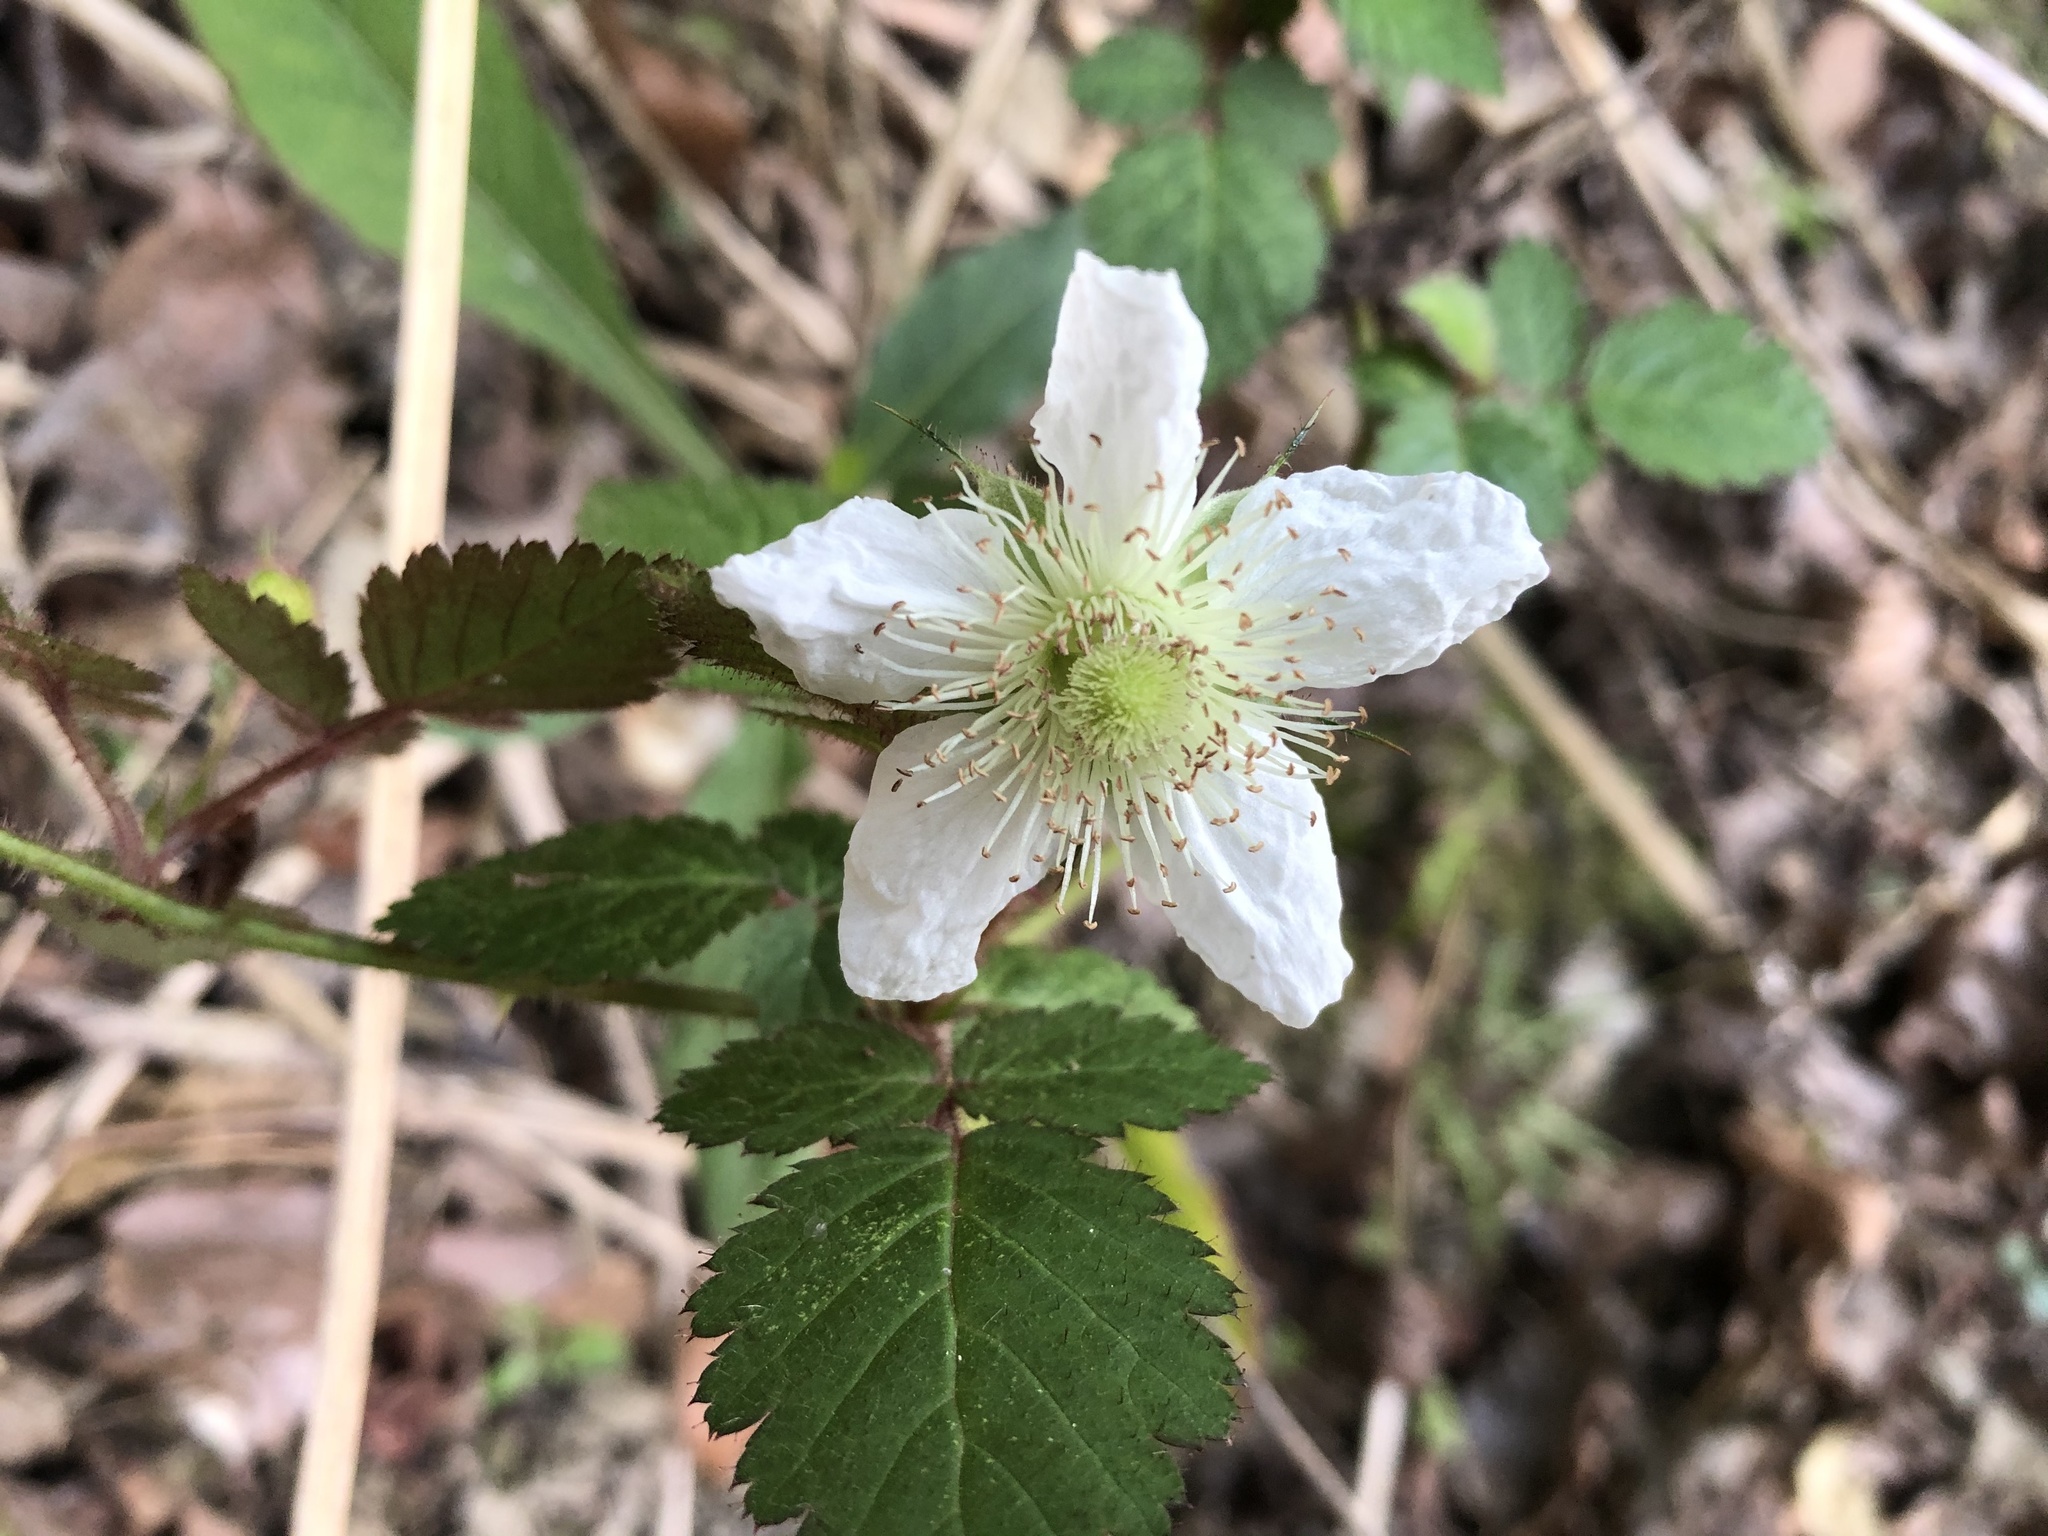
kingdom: Plantae
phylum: Tracheophyta
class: Magnoliopsida
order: Rosales
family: Rosaceae
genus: Rubus
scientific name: Rubus croceacanthus
